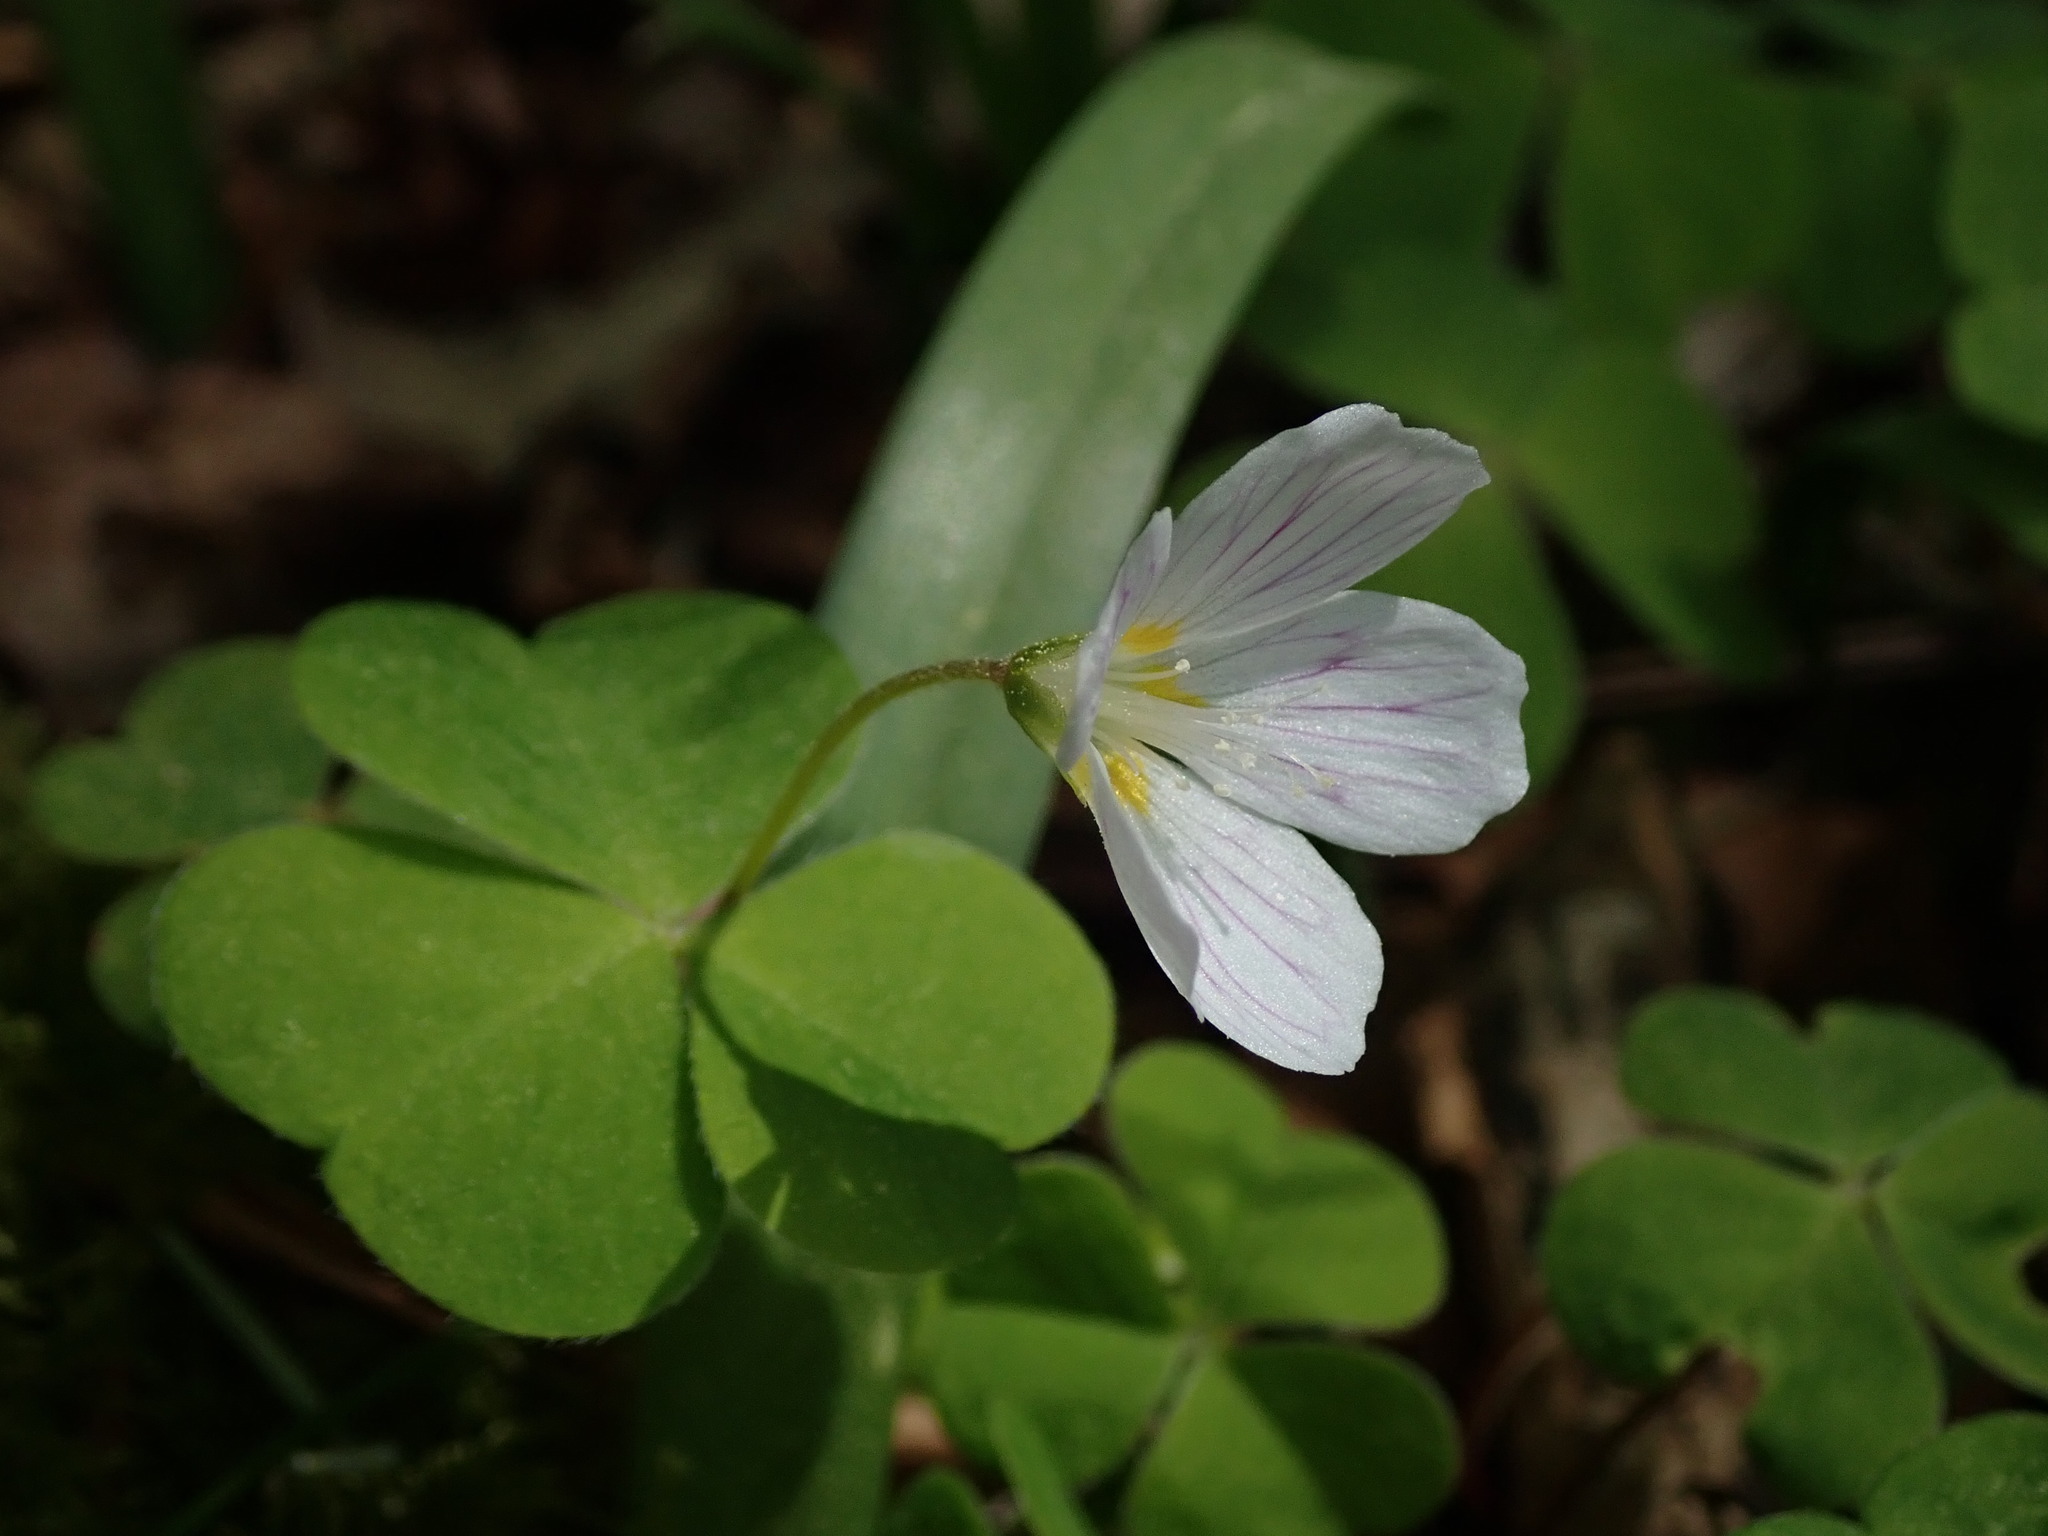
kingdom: Plantae
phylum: Tracheophyta
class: Magnoliopsida
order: Oxalidales
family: Oxalidaceae
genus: Oxalis
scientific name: Oxalis acetosella
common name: Wood-sorrel
